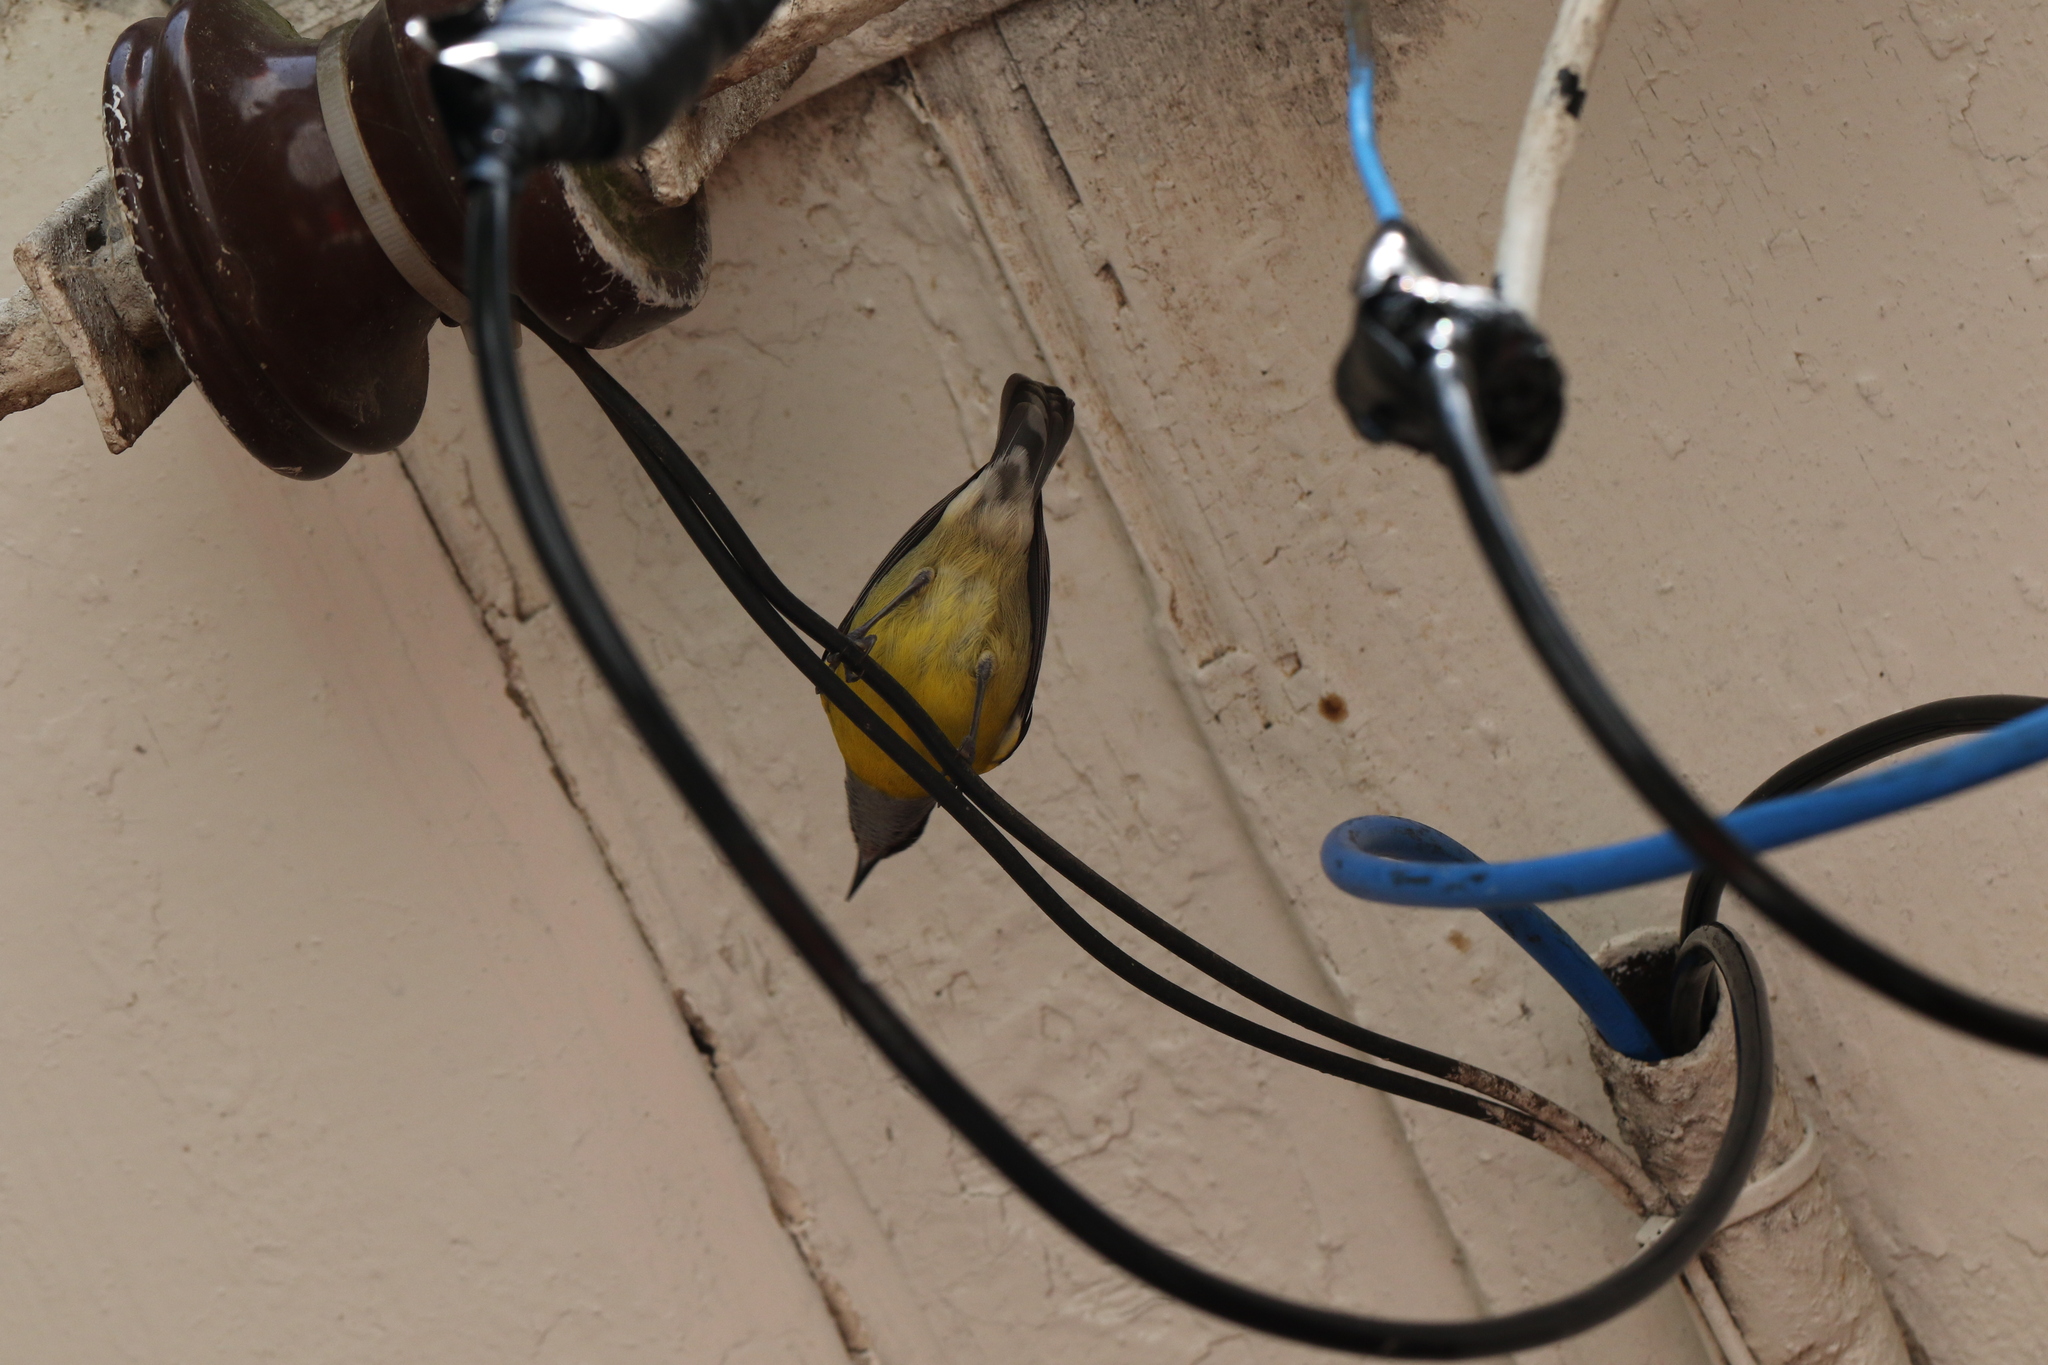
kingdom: Animalia
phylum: Chordata
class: Aves
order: Passeriformes
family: Thraupidae
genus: Coereba
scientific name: Coereba flaveola
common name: Bananaquit
